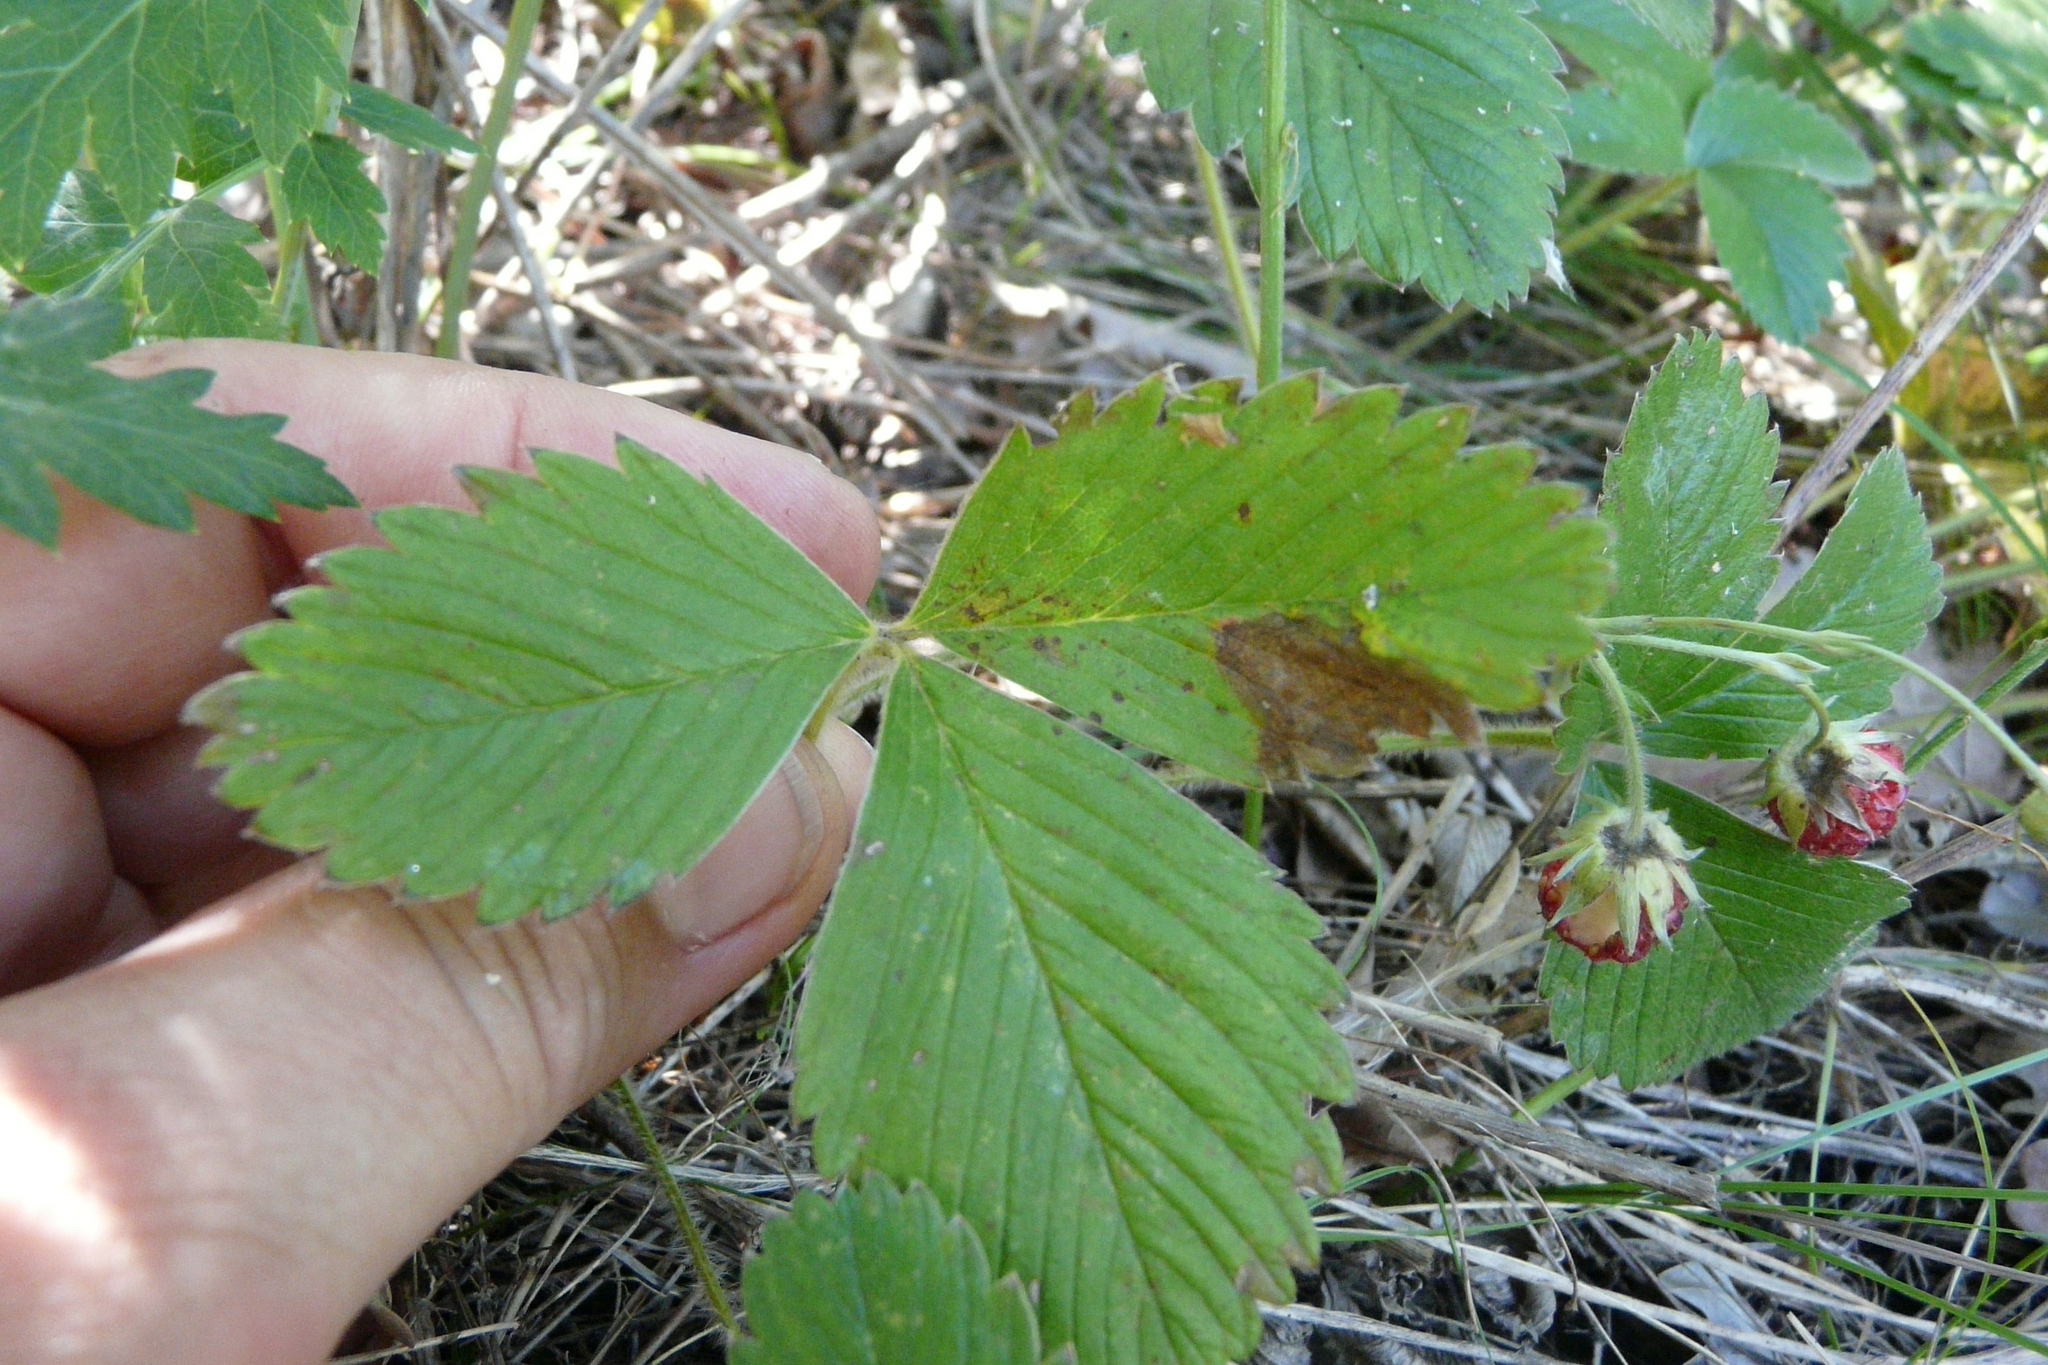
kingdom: Plantae
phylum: Tracheophyta
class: Magnoliopsida
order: Rosales
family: Rosaceae
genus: Fragaria
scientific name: Fragaria viridis
